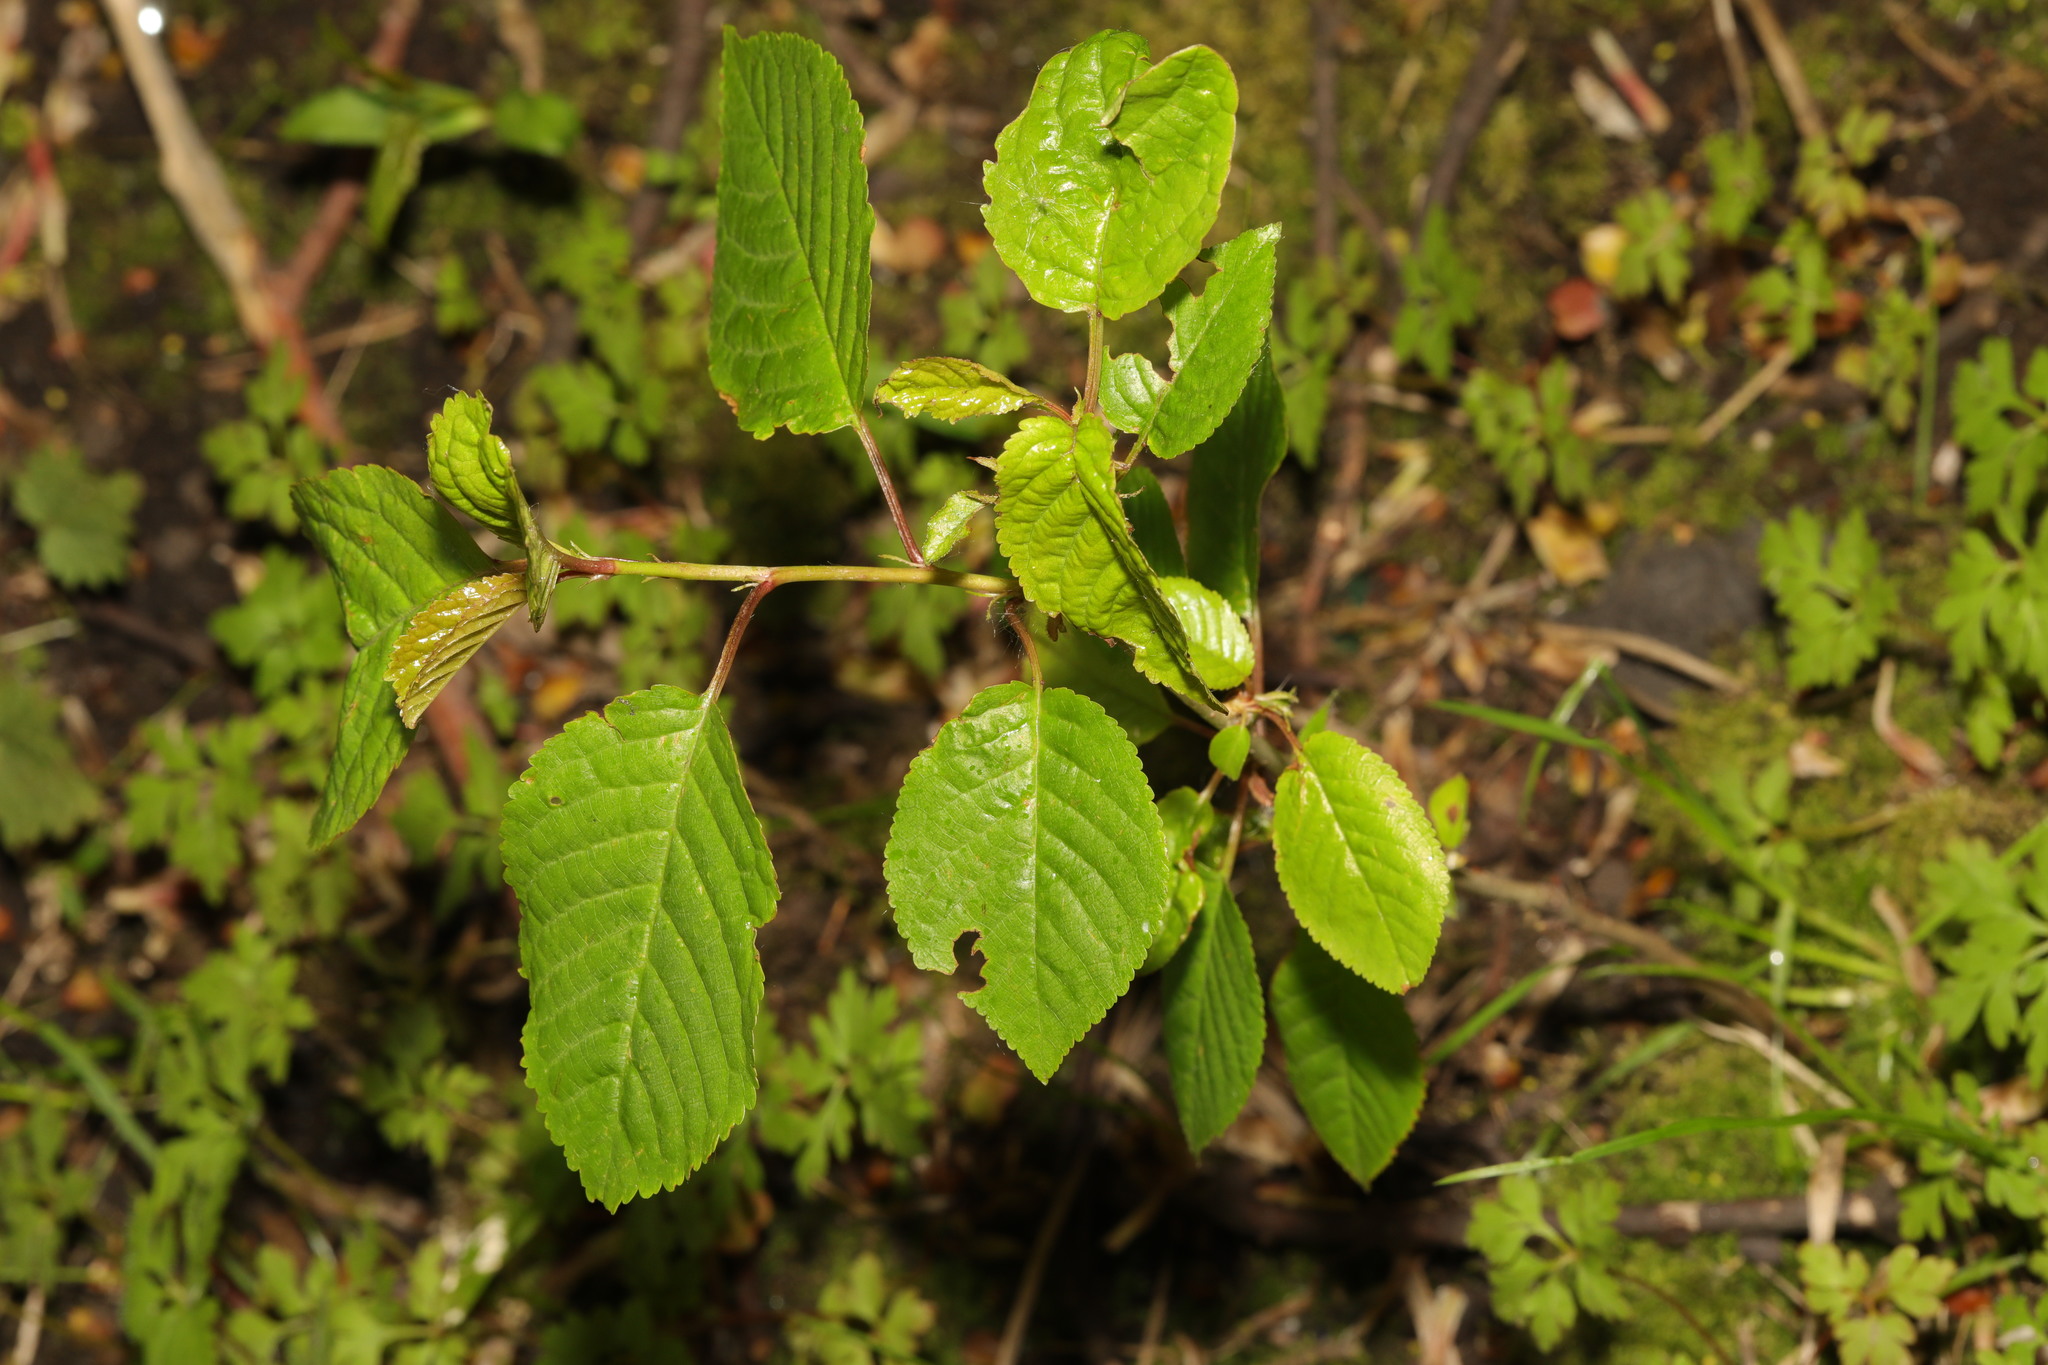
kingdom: Plantae
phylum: Tracheophyta
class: Magnoliopsida
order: Rosales
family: Rosaceae
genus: Prunus
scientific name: Prunus avium
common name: Sweet cherry
